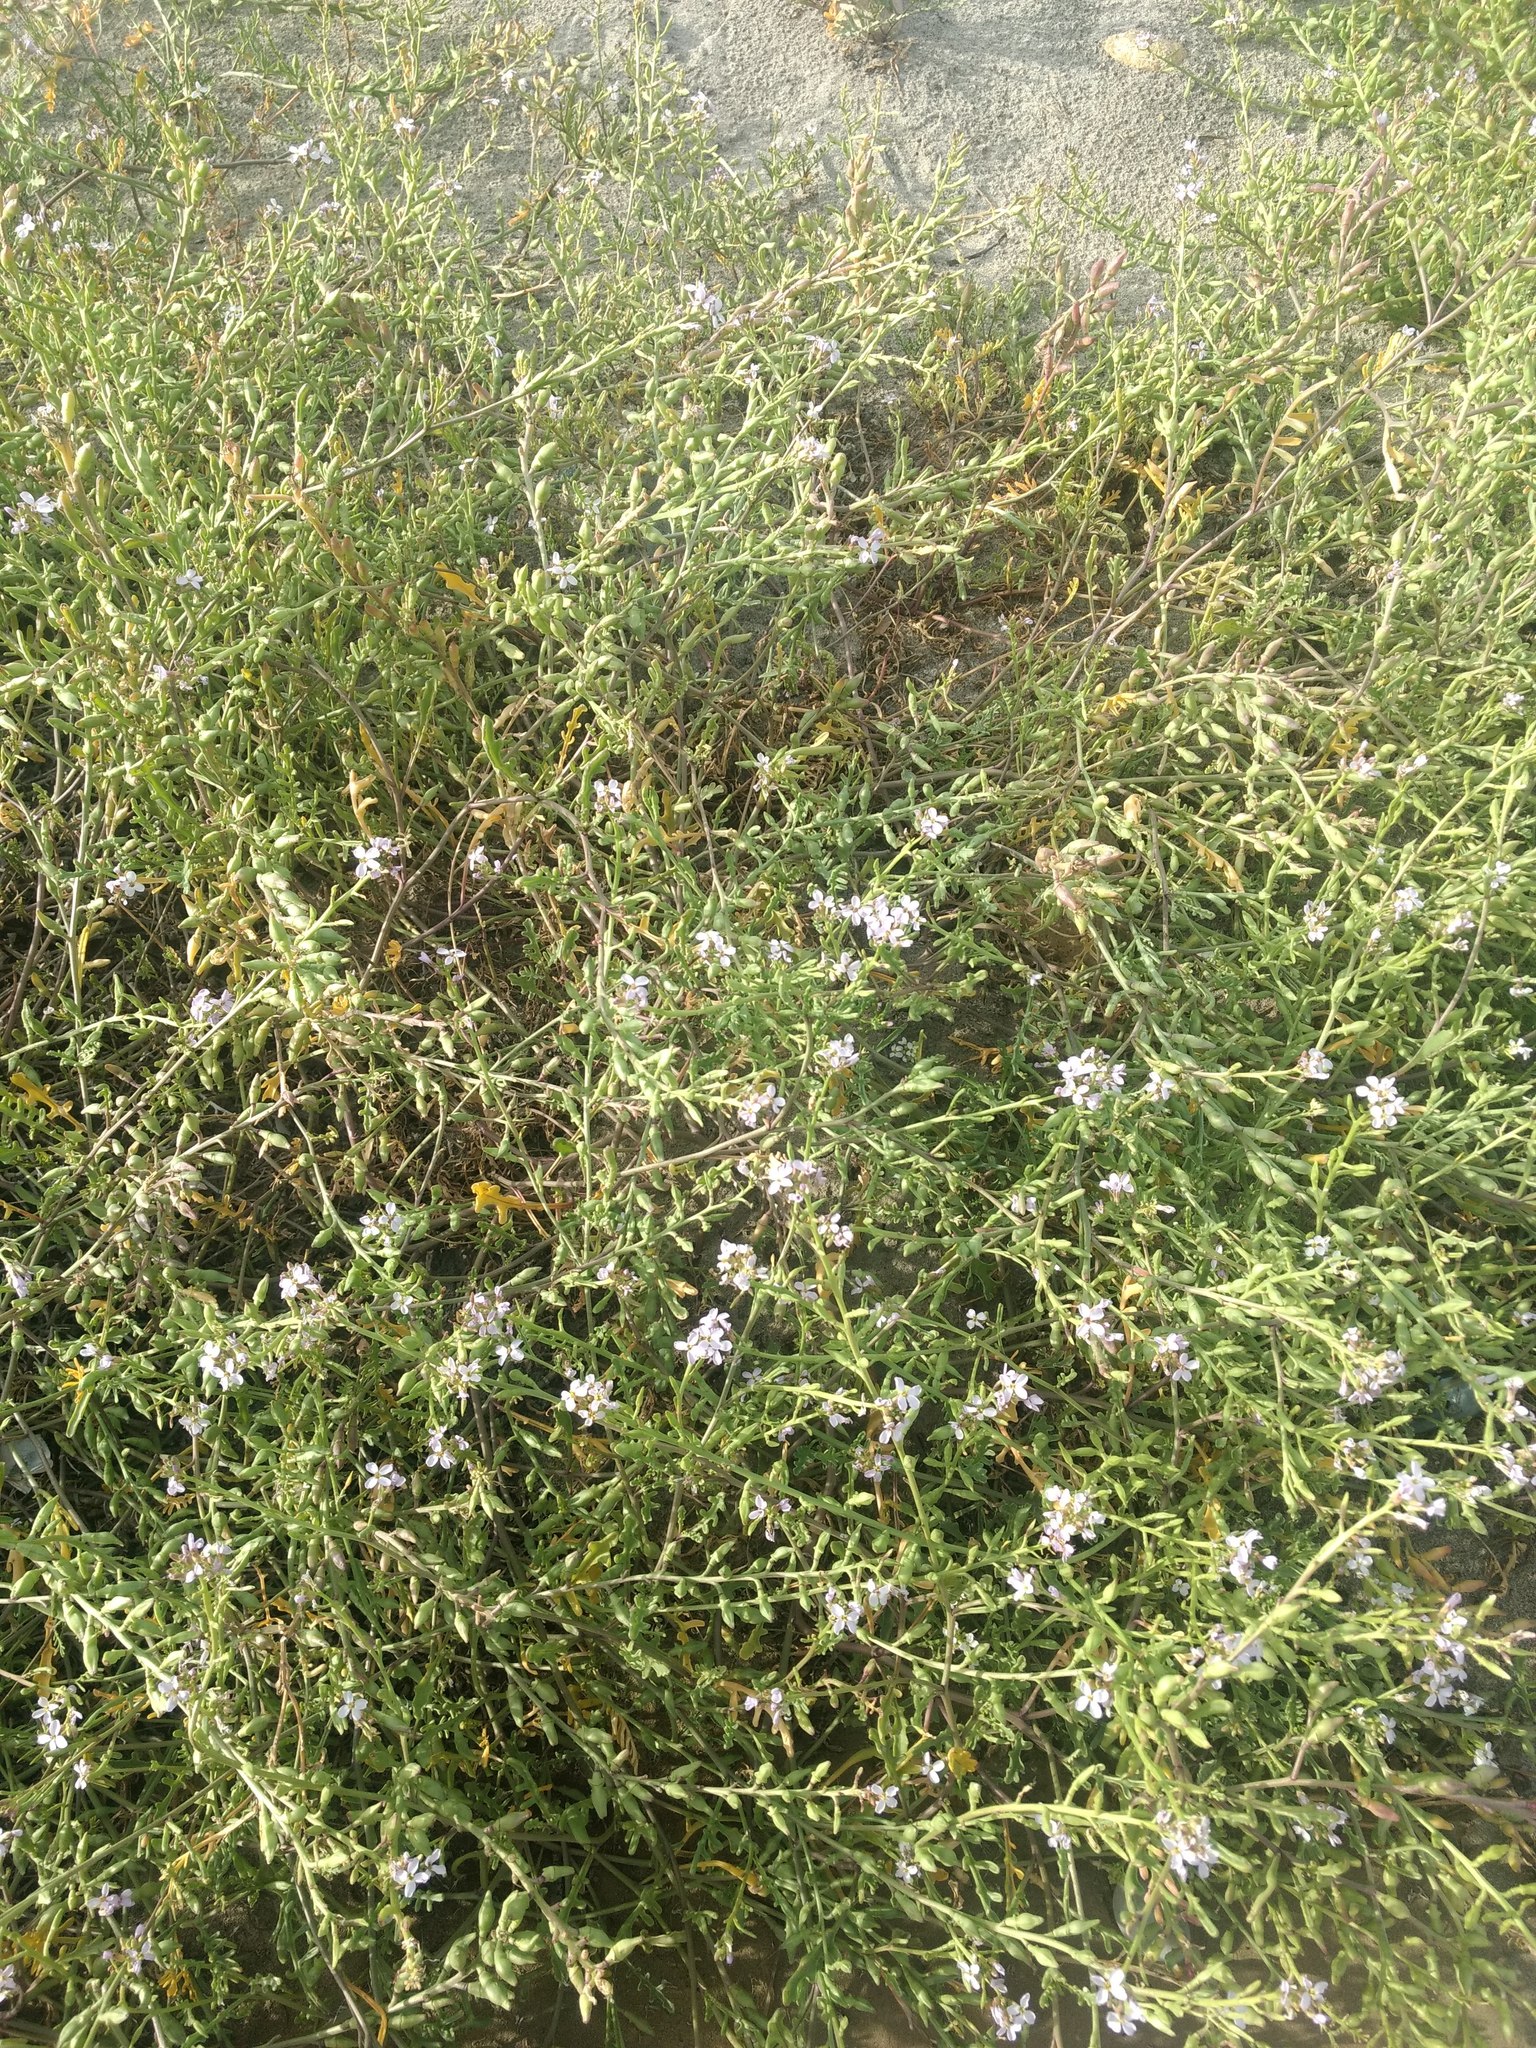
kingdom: Plantae
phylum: Tracheophyta
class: Magnoliopsida
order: Brassicales
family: Brassicaceae
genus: Cakile
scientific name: Cakile maritima
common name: Sea rocket
